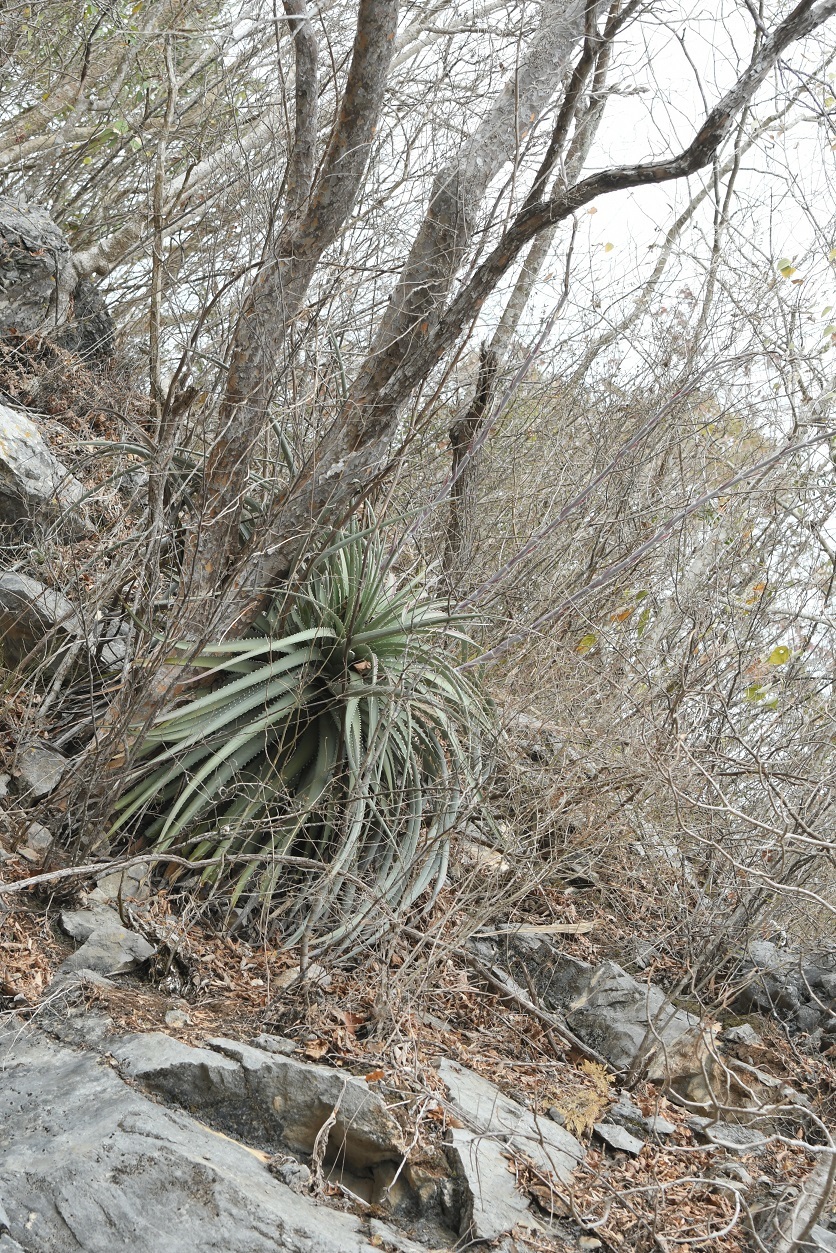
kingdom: Plantae
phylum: Tracheophyta
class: Liliopsida
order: Poales
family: Bromeliaceae
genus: Hechtia
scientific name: Hechtia glomerata
